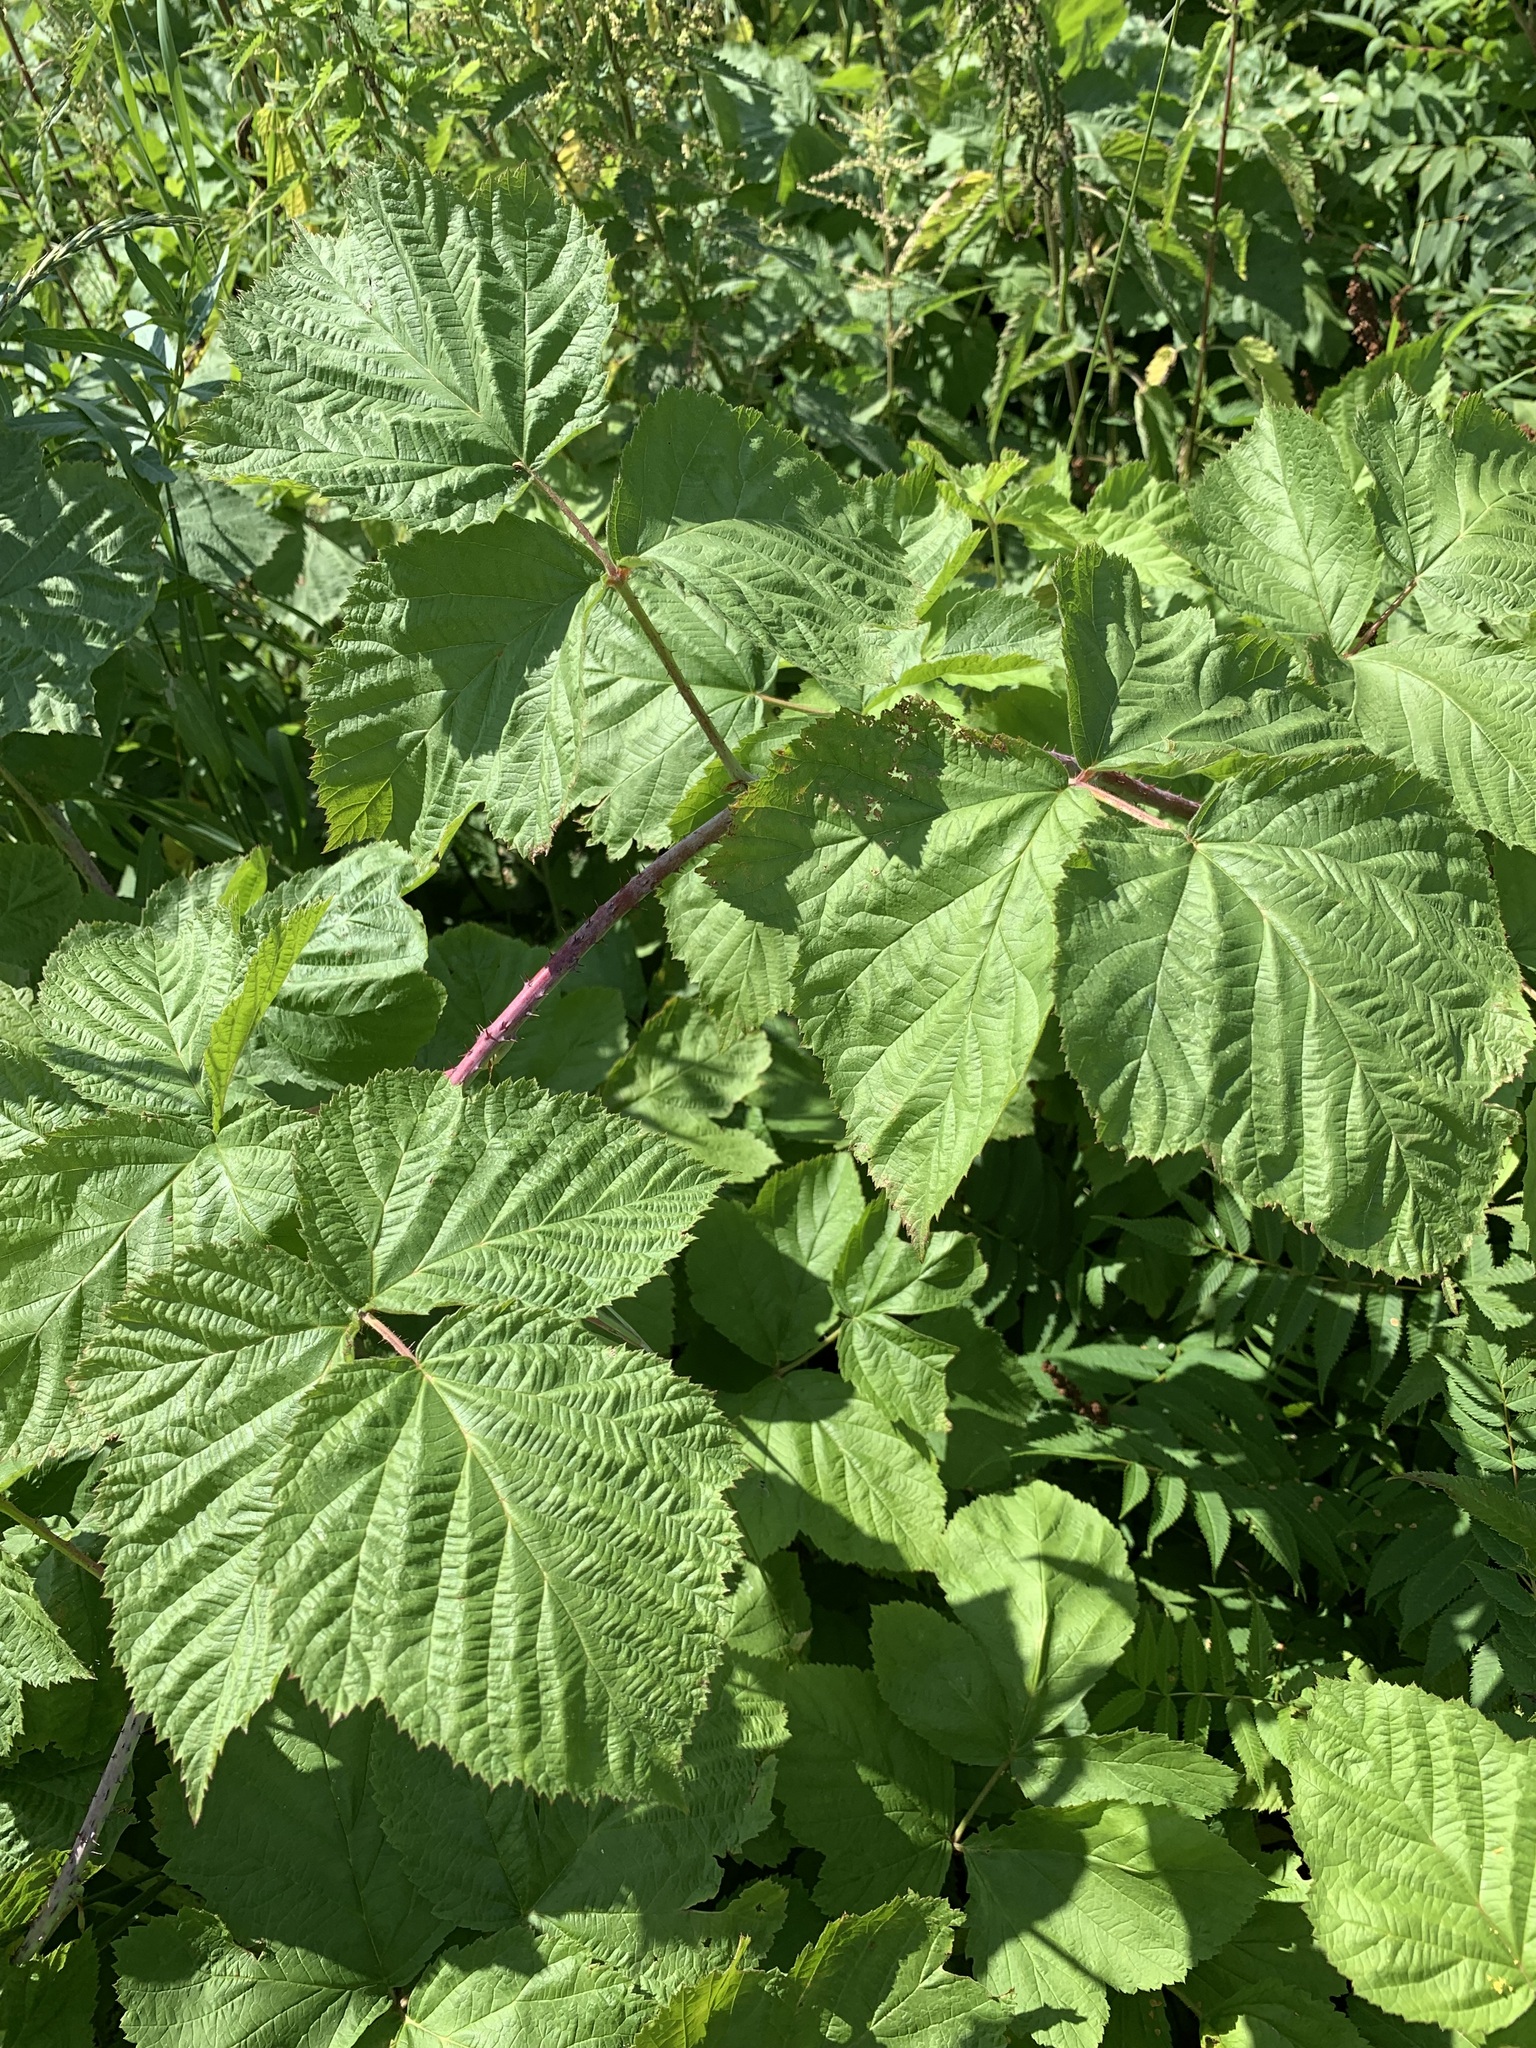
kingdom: Plantae
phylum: Tracheophyta
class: Magnoliopsida
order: Rosales
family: Rosaceae
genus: Rubus
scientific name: Rubus caesius
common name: Dewberry
